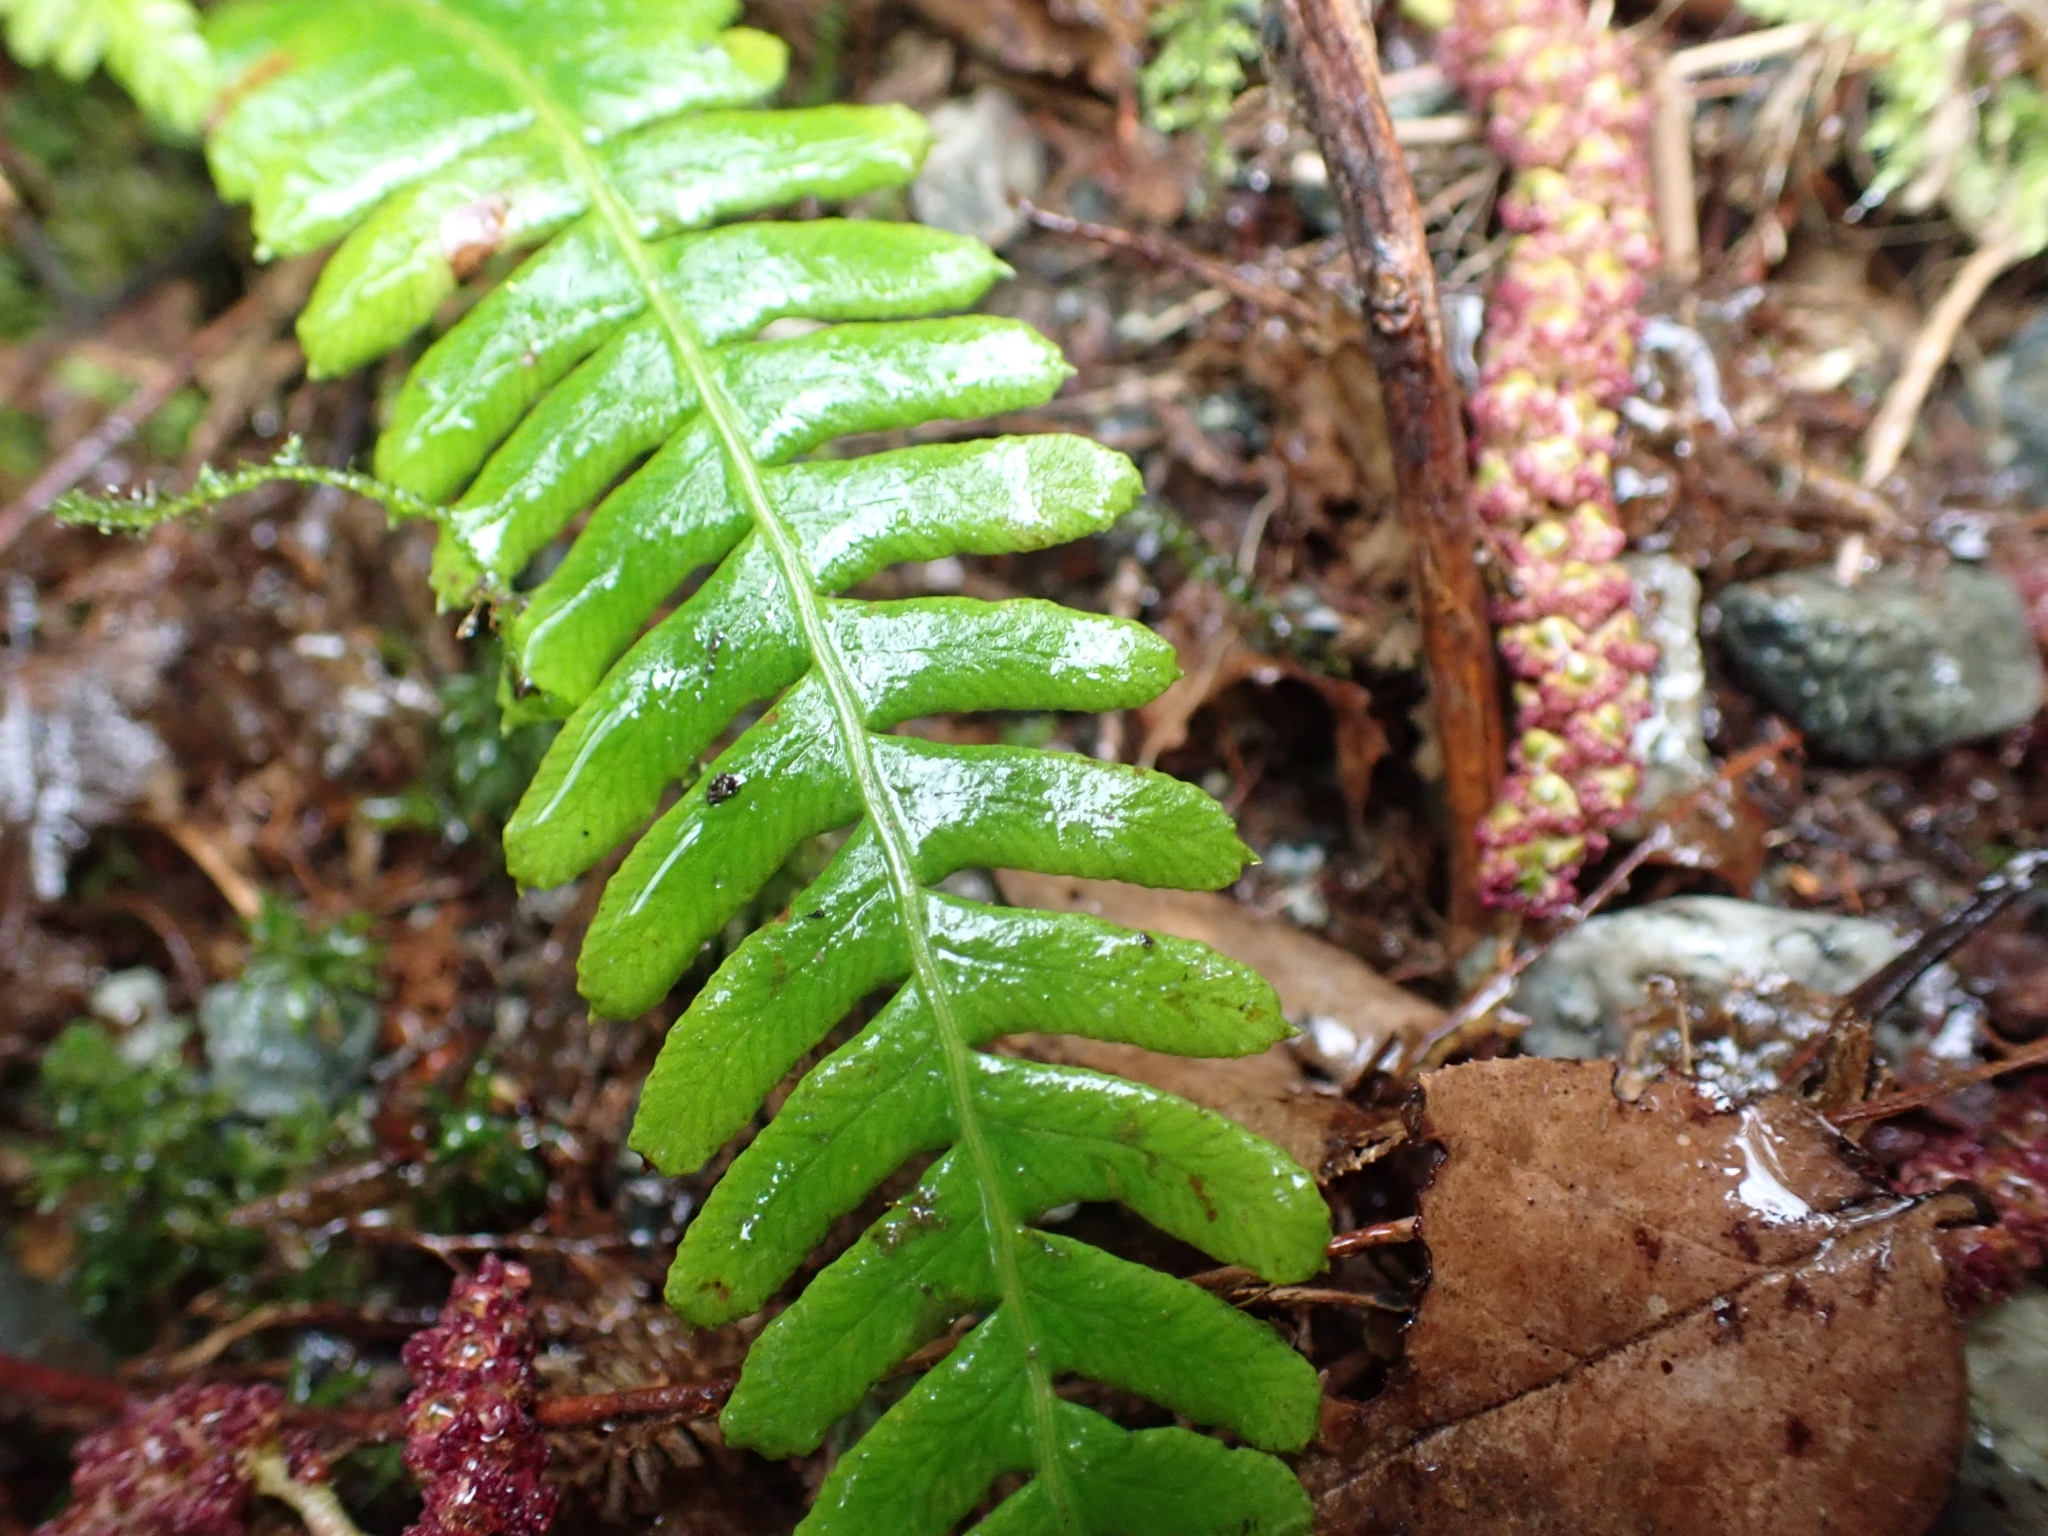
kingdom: Plantae
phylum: Tracheophyta
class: Polypodiopsida
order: Polypodiales
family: Blechnaceae
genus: Struthiopteris
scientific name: Struthiopteris spicant
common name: Deer fern
